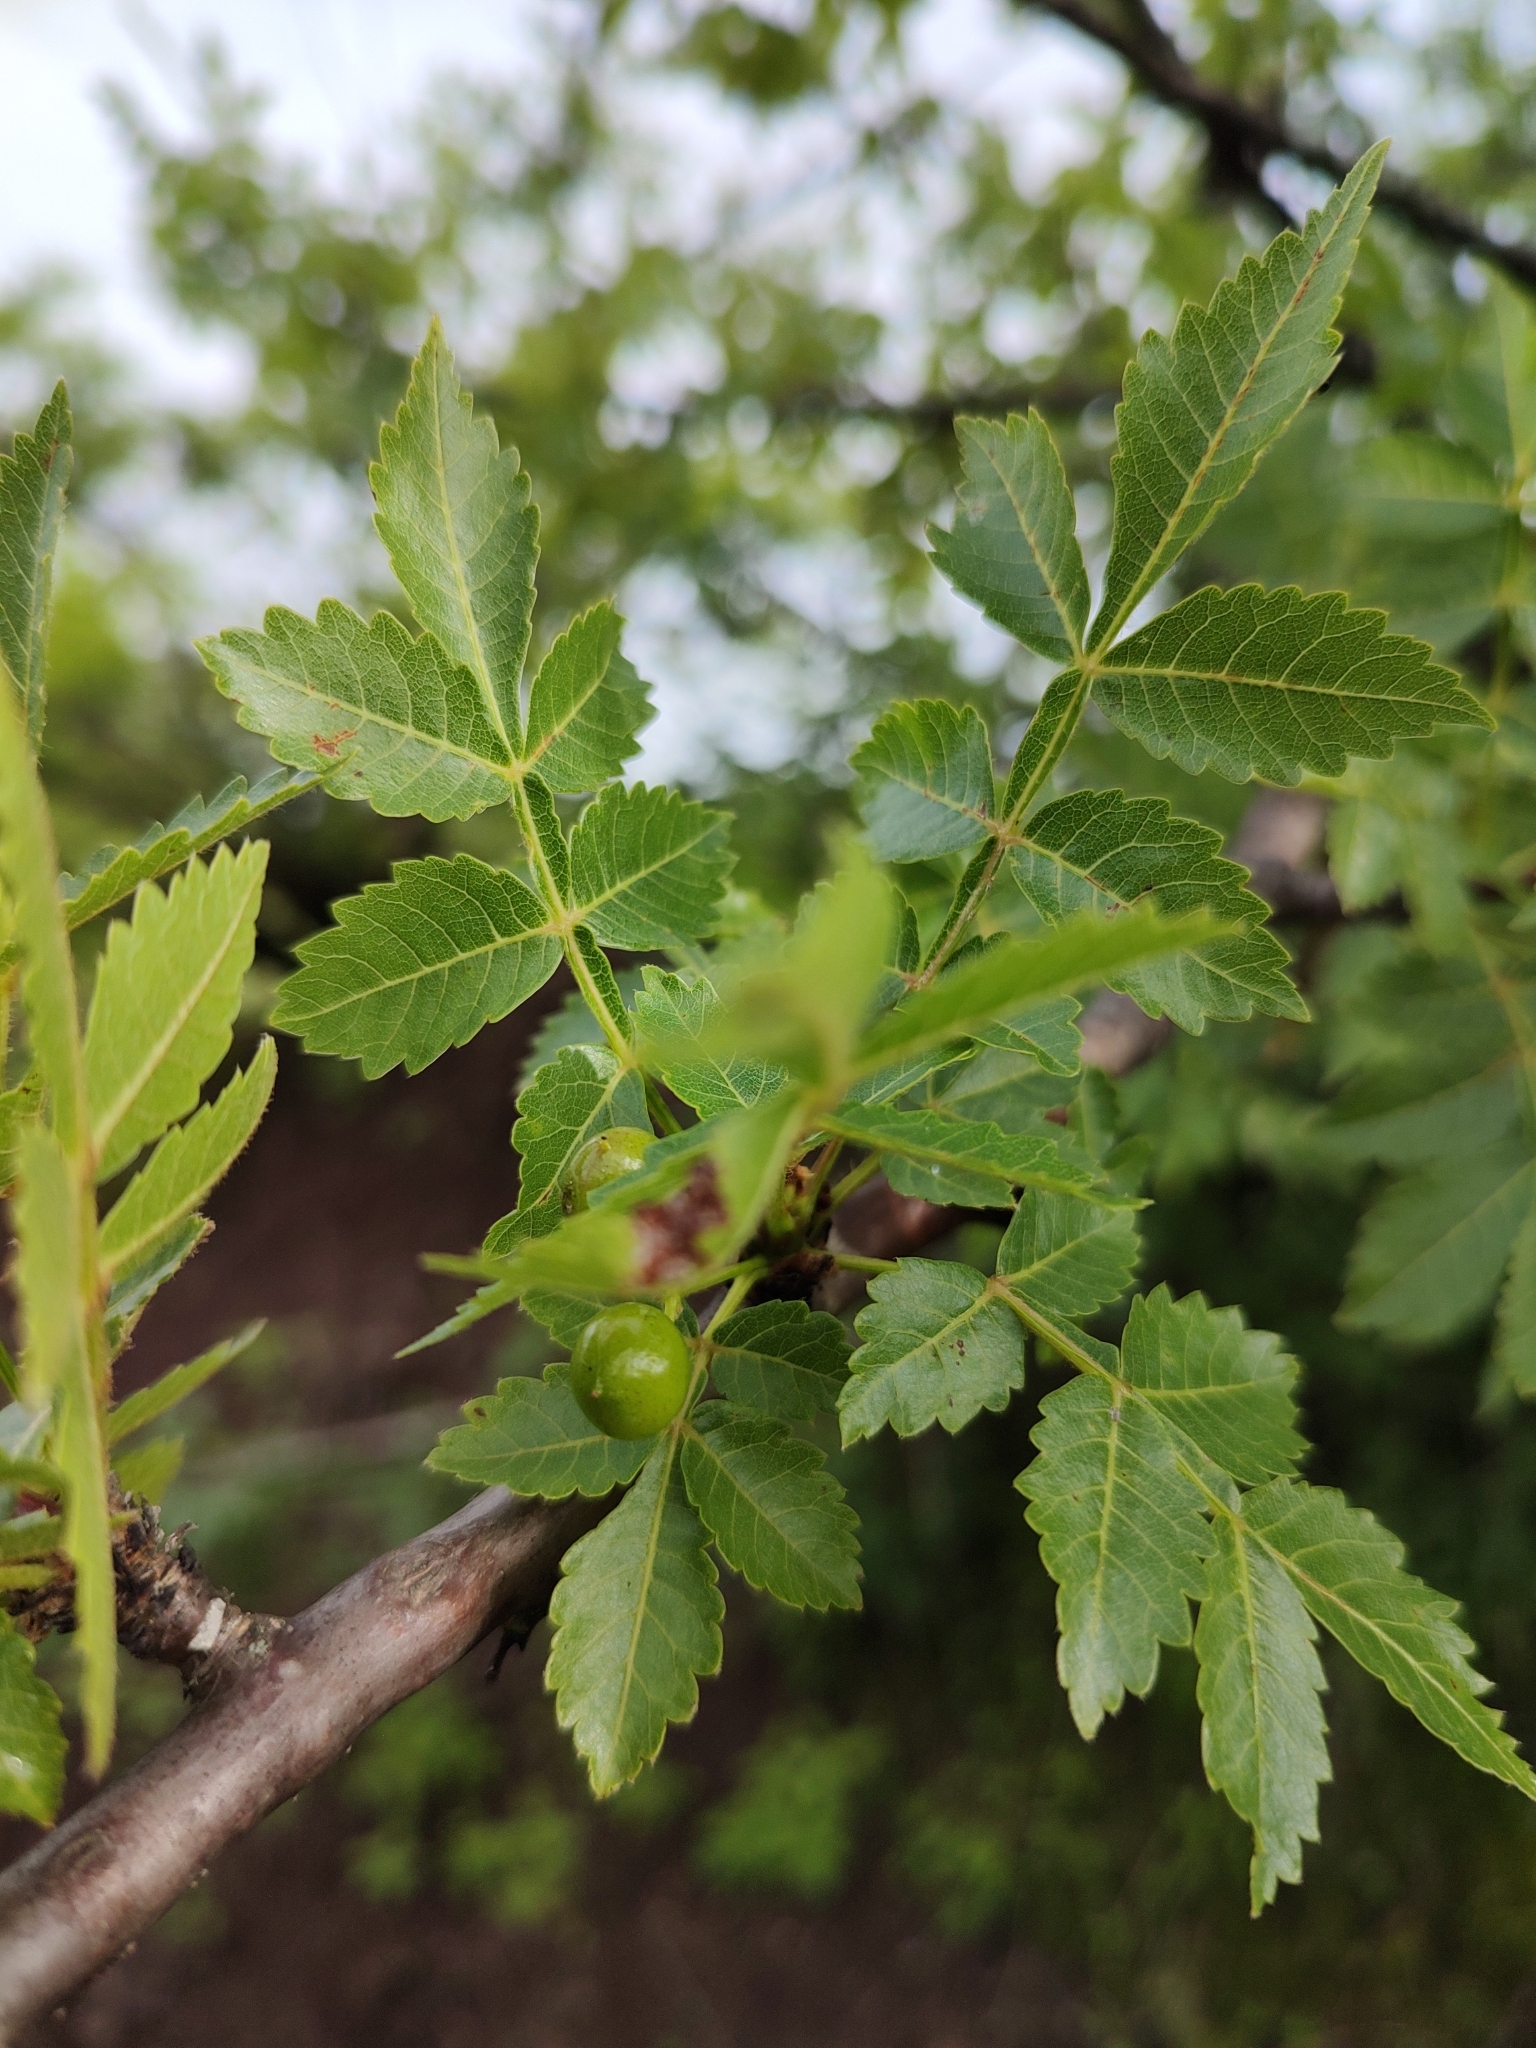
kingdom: Plantae
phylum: Tracheophyta
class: Magnoliopsida
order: Sapindales
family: Burseraceae
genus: Bursera
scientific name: Bursera penicillata
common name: Indian-lavender
